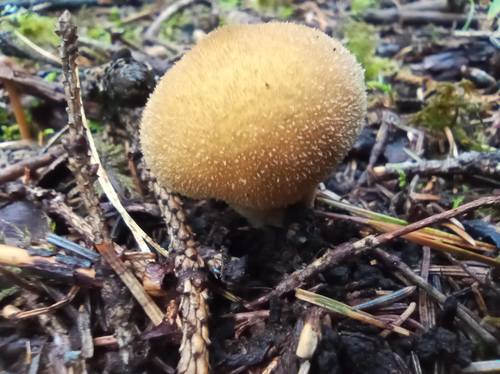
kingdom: Fungi
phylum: Basidiomycota
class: Agaricomycetes
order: Agaricales
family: Lycoperdaceae
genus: Lycoperdon
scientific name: Lycoperdon
